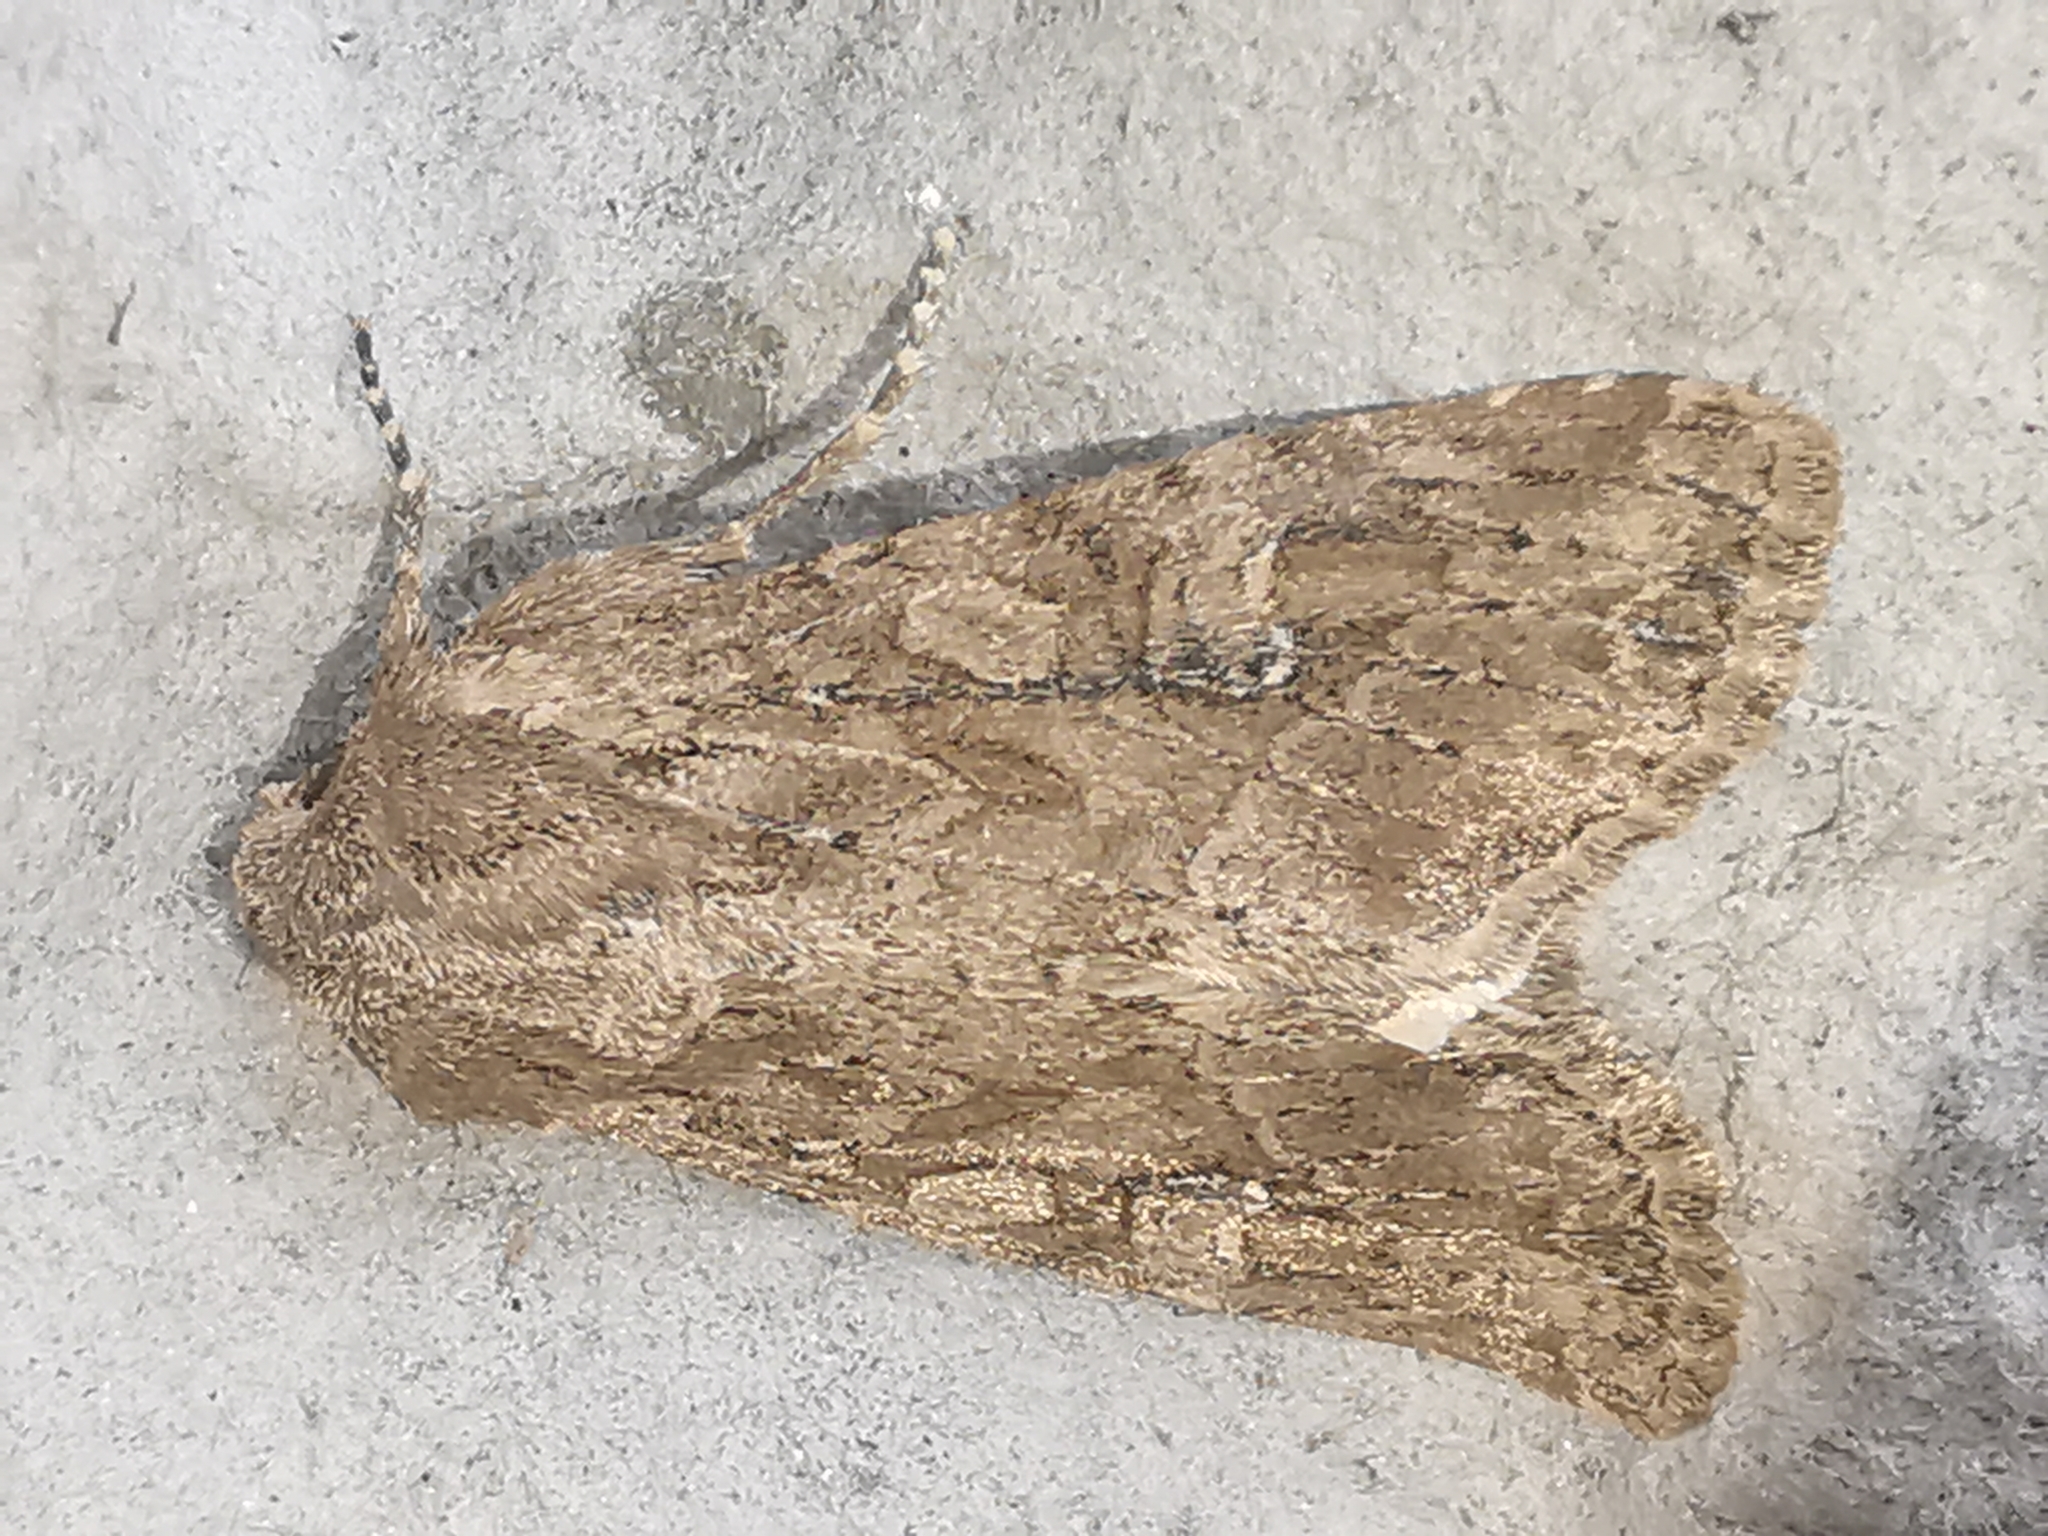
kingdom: Animalia
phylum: Arthropoda
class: Insecta
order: Lepidoptera
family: Noctuidae
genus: Apamea
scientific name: Apamea anceps
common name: Large nutmeg
